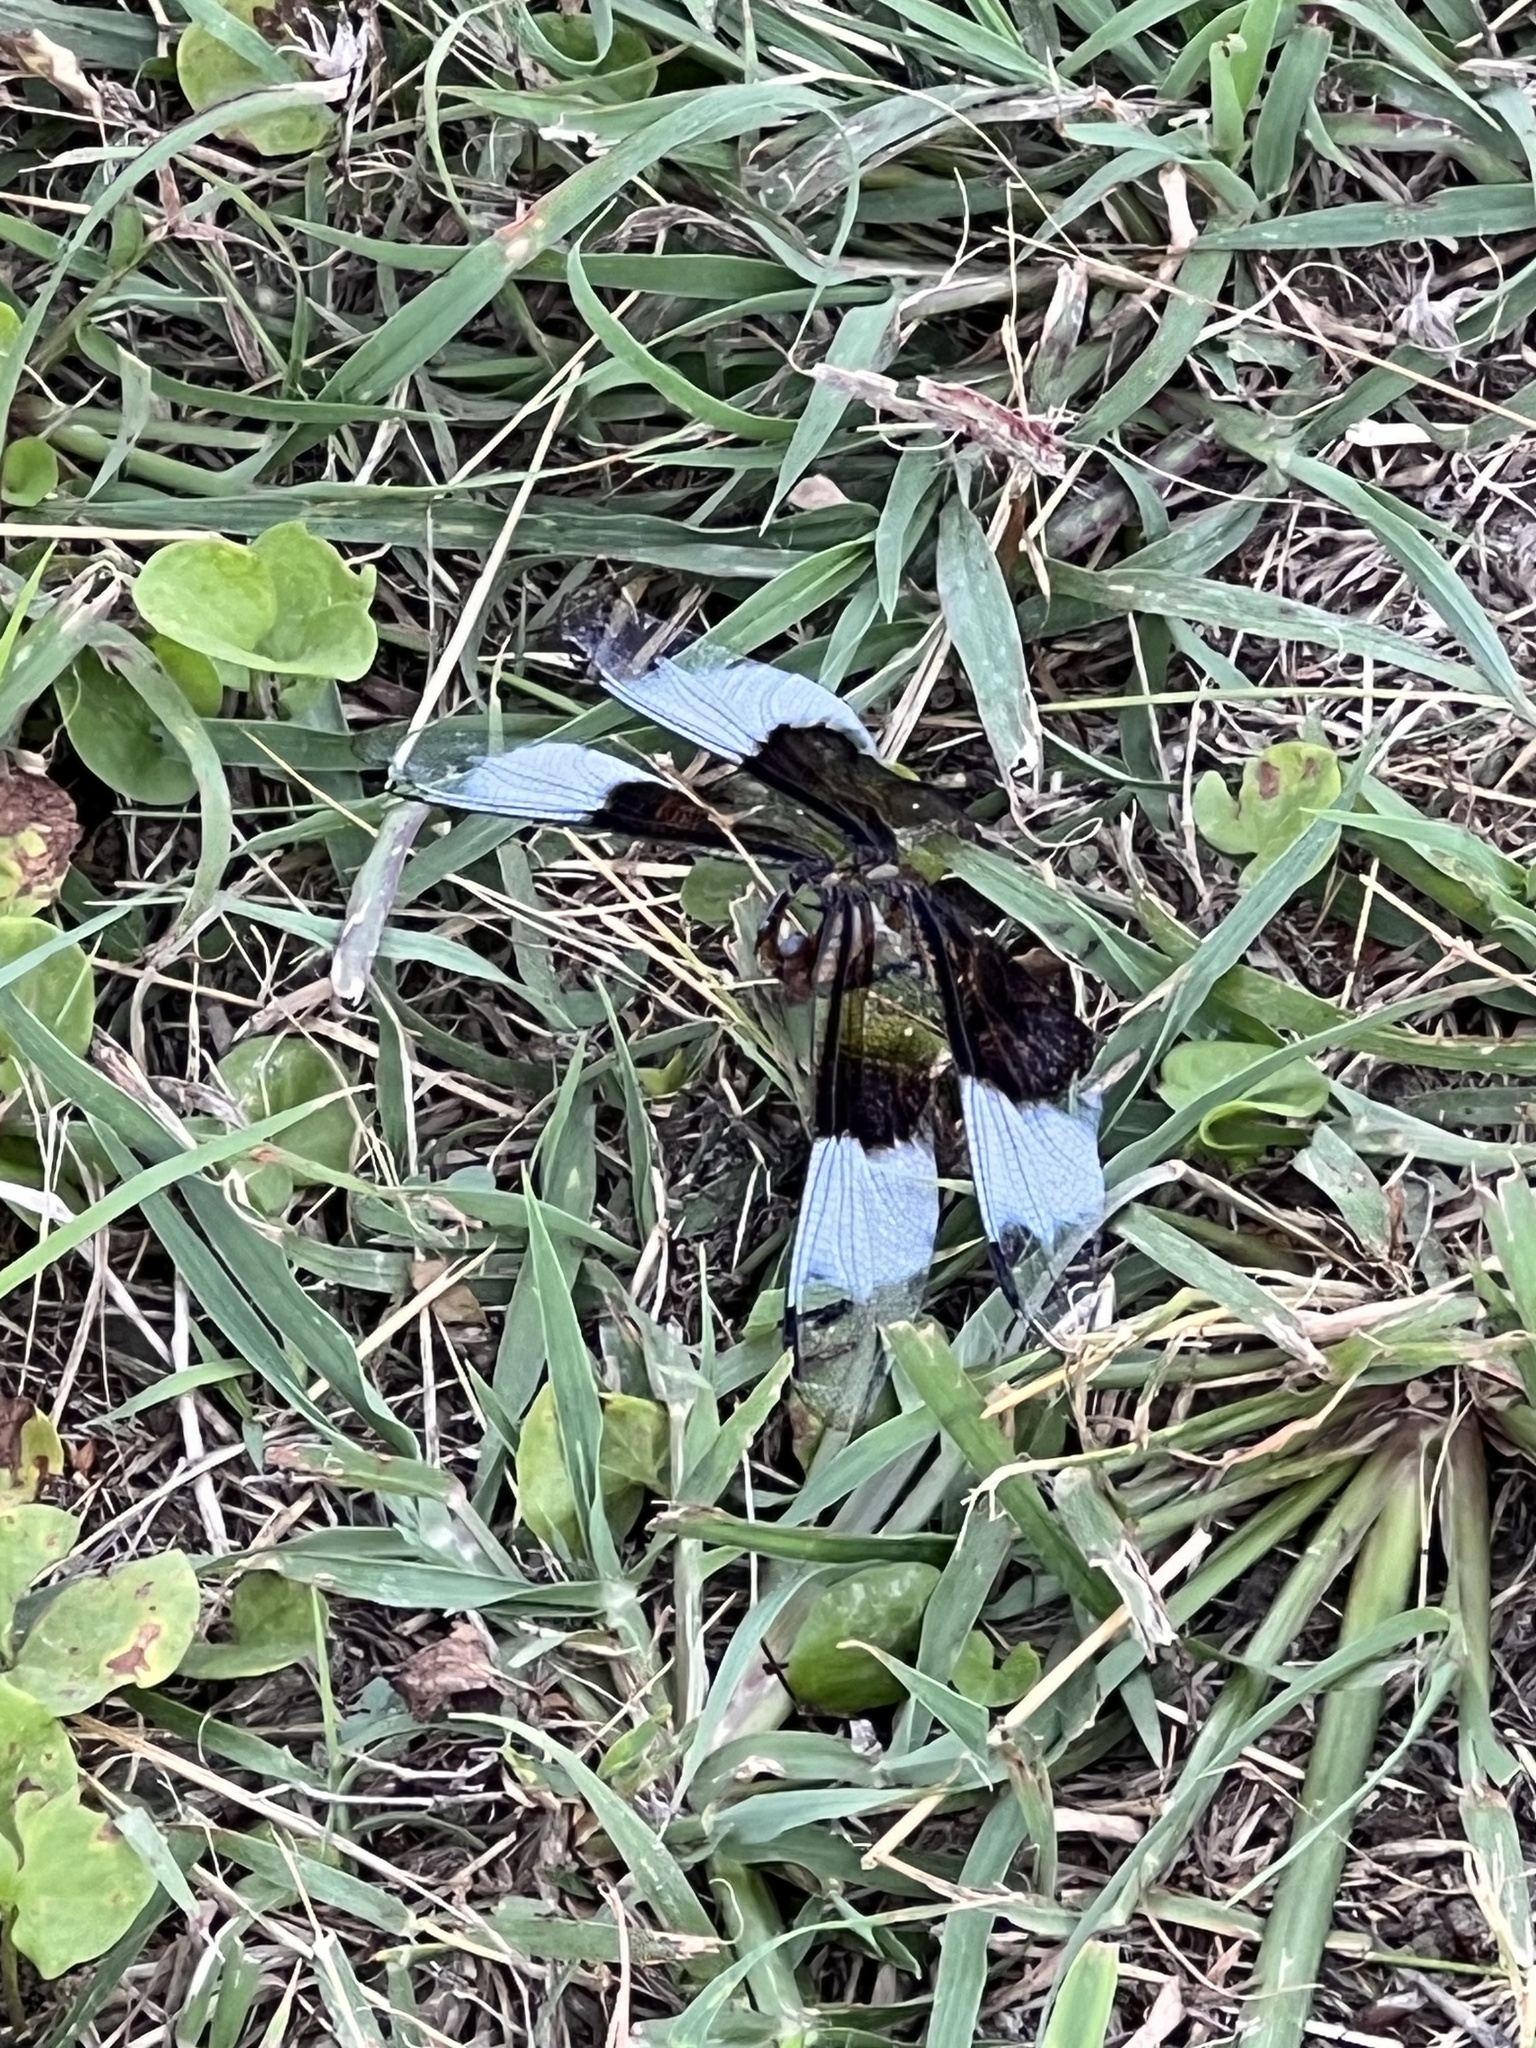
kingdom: Animalia
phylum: Arthropoda
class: Insecta
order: Odonata
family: Libellulidae
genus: Libellula
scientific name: Libellula luctuosa
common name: Widow skimmer
